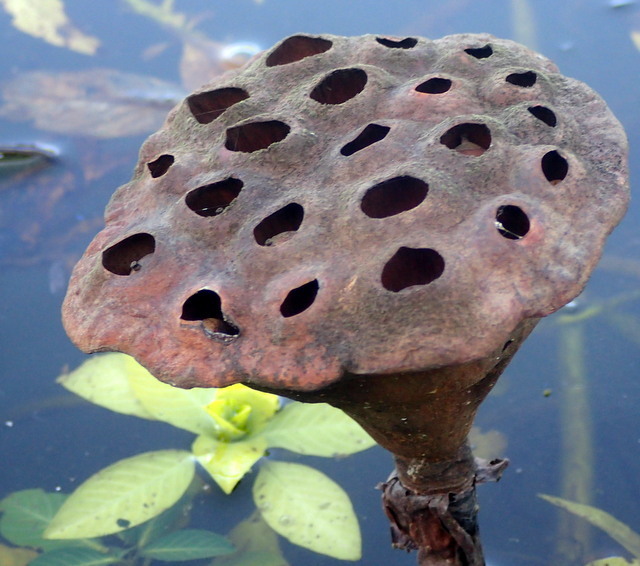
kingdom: Plantae
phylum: Tracheophyta
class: Magnoliopsida
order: Proteales
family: Nelumbonaceae
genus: Nelumbo
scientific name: Nelumbo lutea
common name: American lotus
